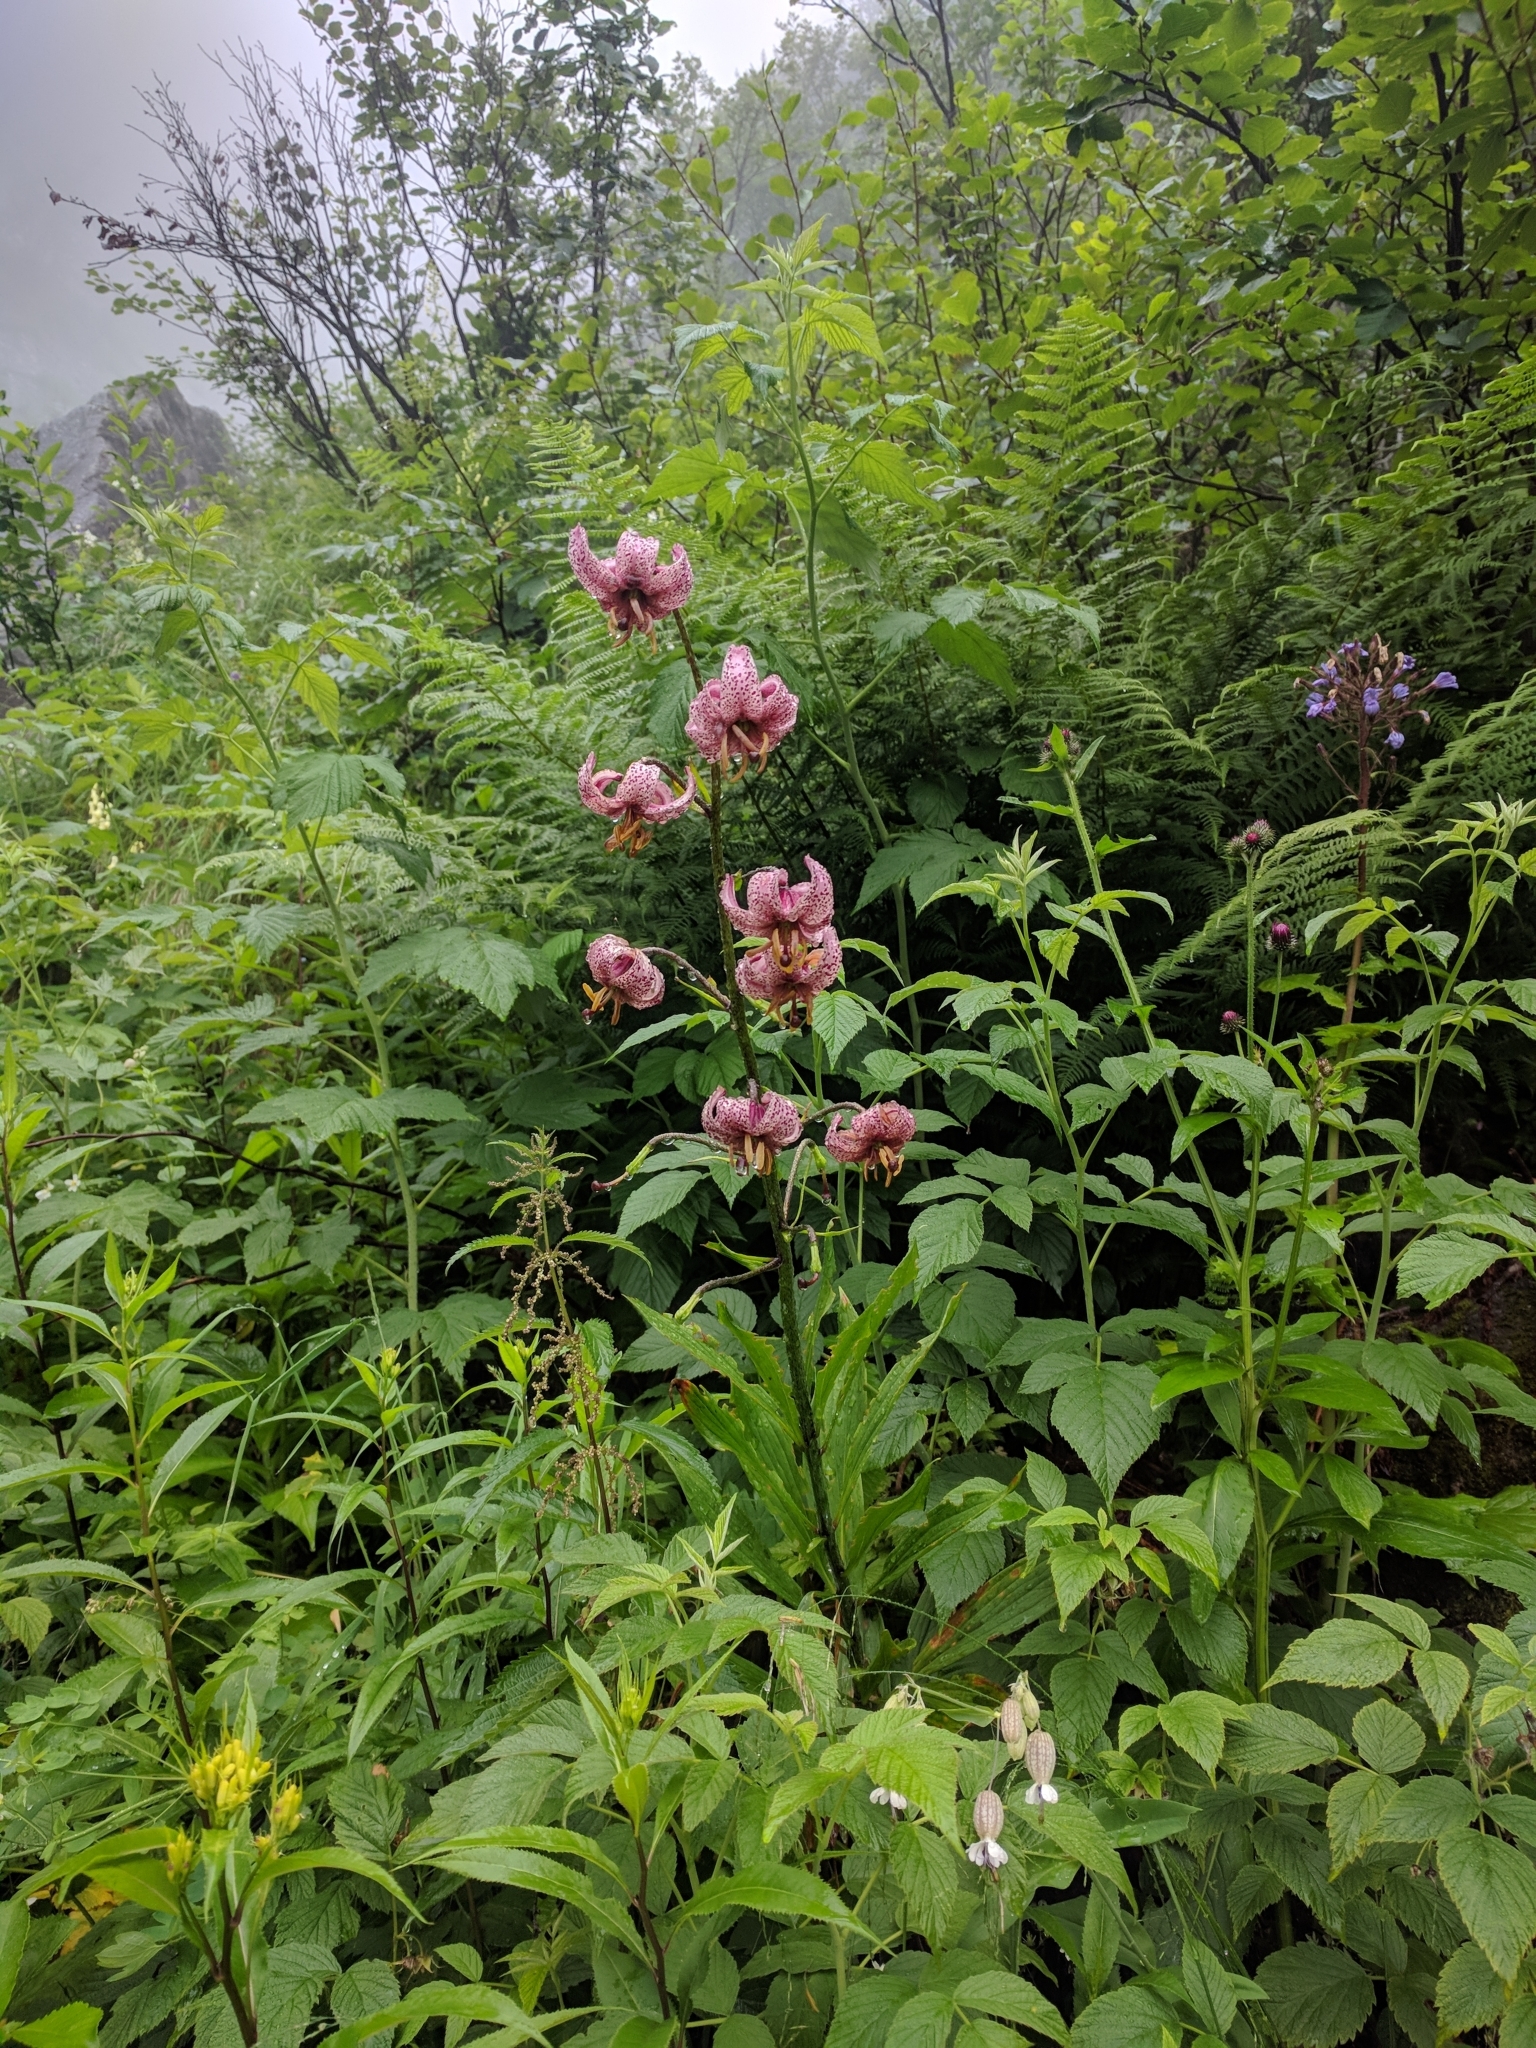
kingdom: Plantae
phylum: Tracheophyta
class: Liliopsida
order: Liliales
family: Liliaceae
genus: Lilium
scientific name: Lilium martagon
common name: Martagon lily
